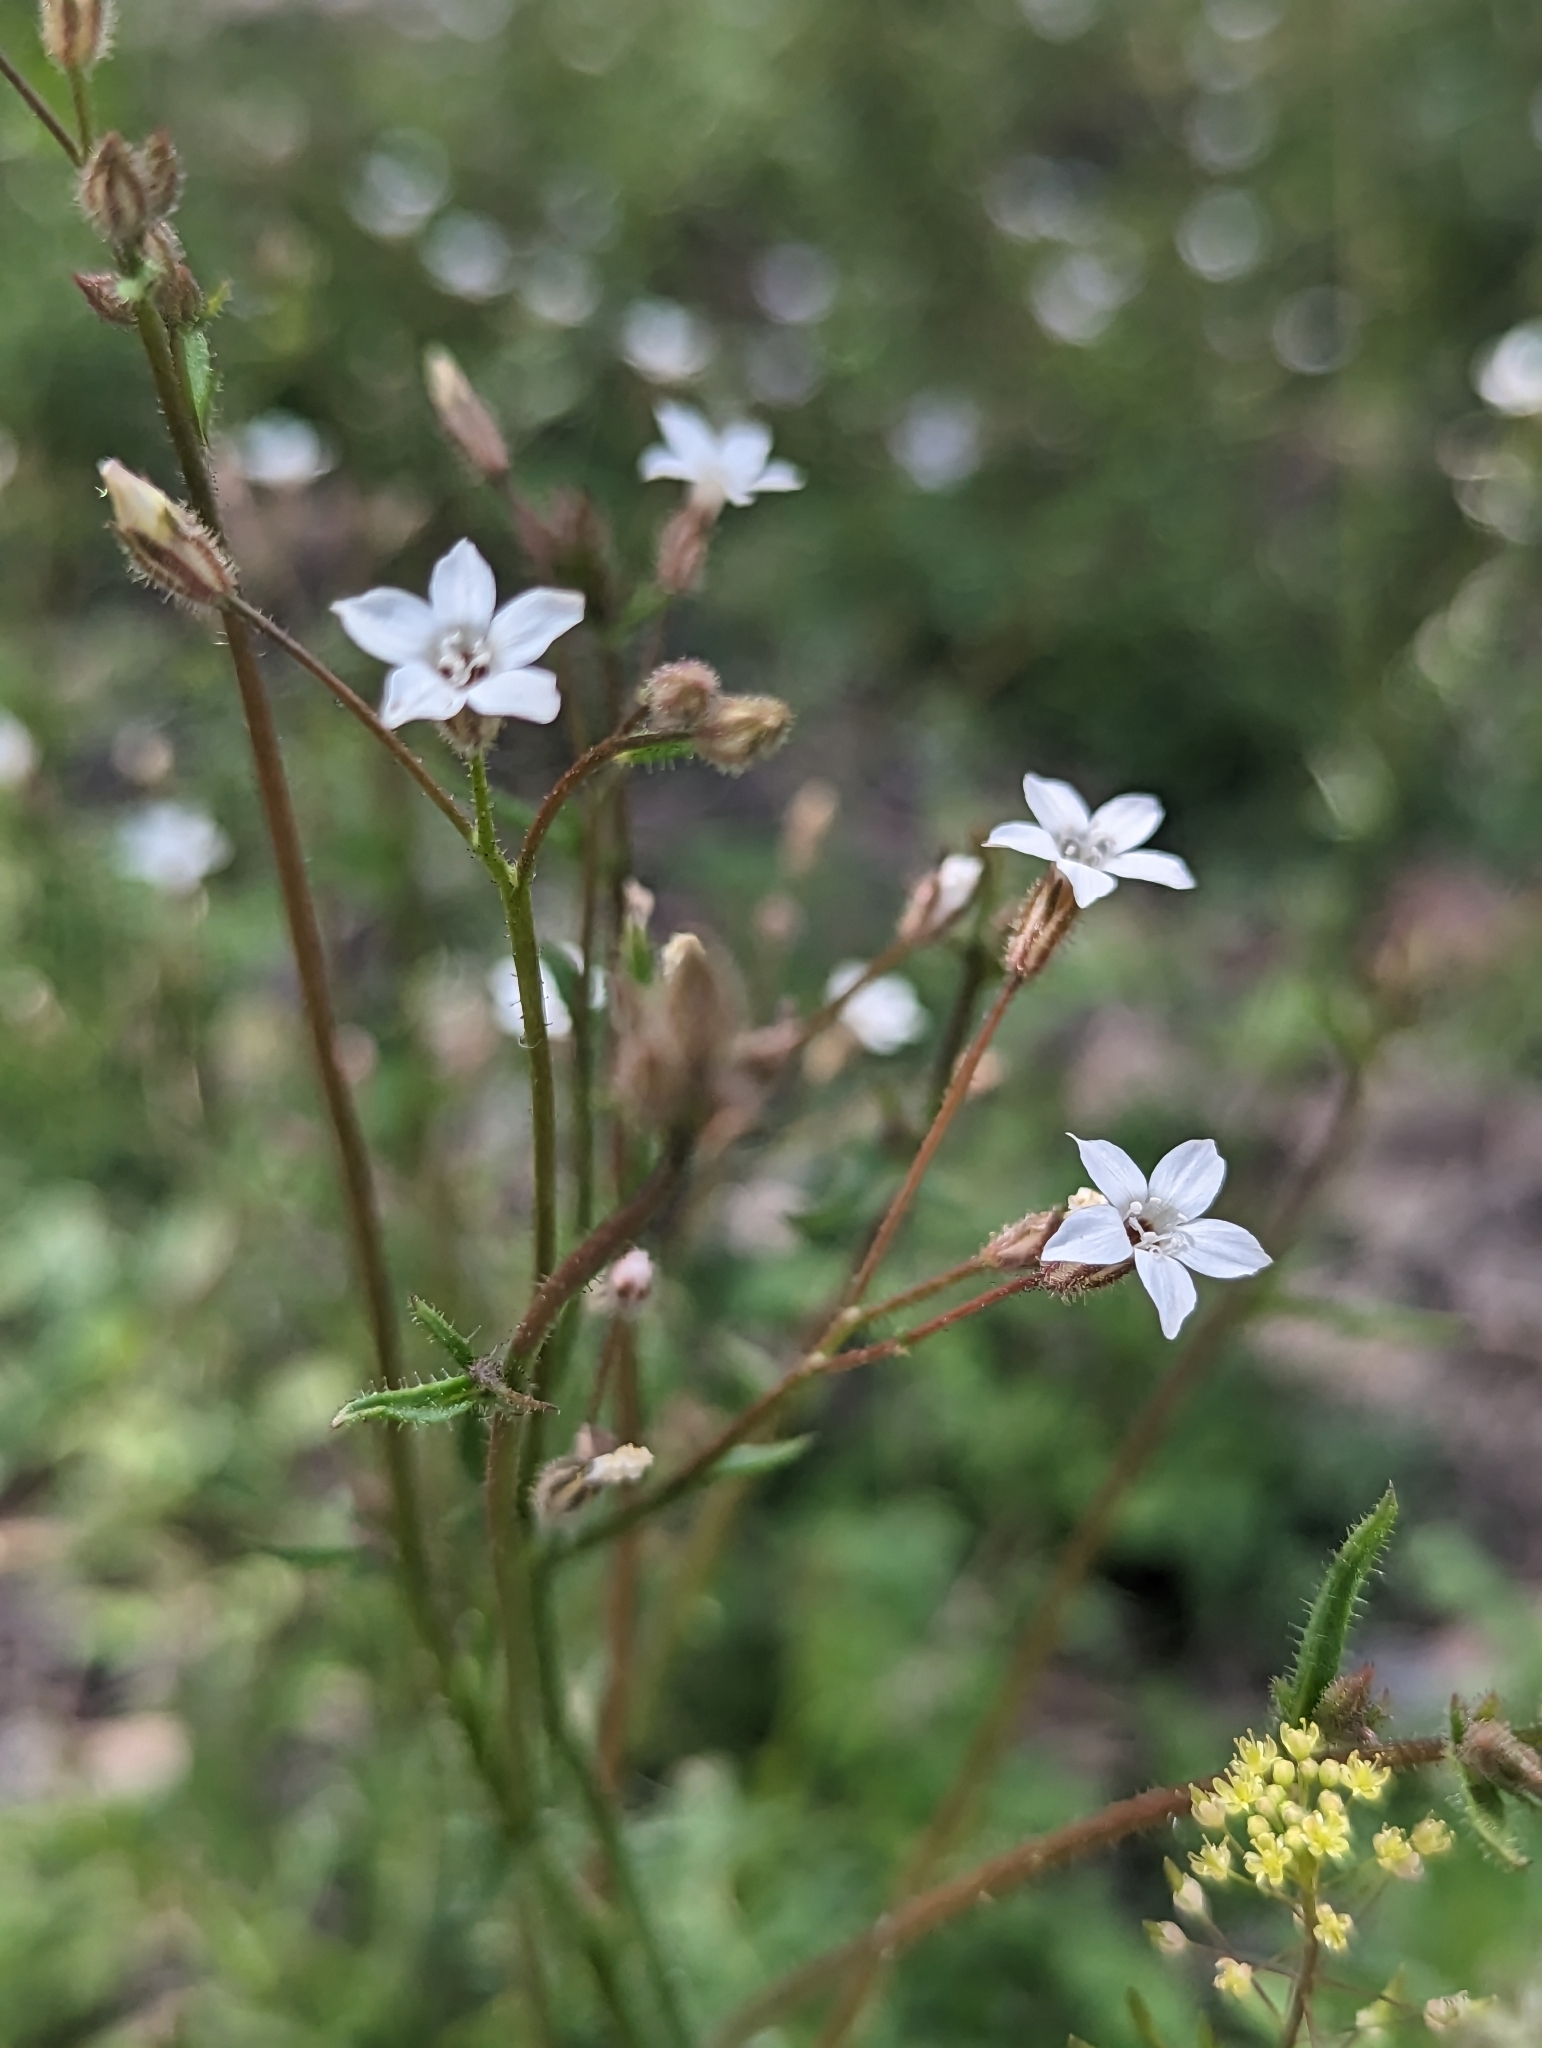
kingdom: Plantae
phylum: Tracheophyta
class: Magnoliopsida
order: Ericales
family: Polemoniaceae
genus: Gilia
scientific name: Gilia stellata
